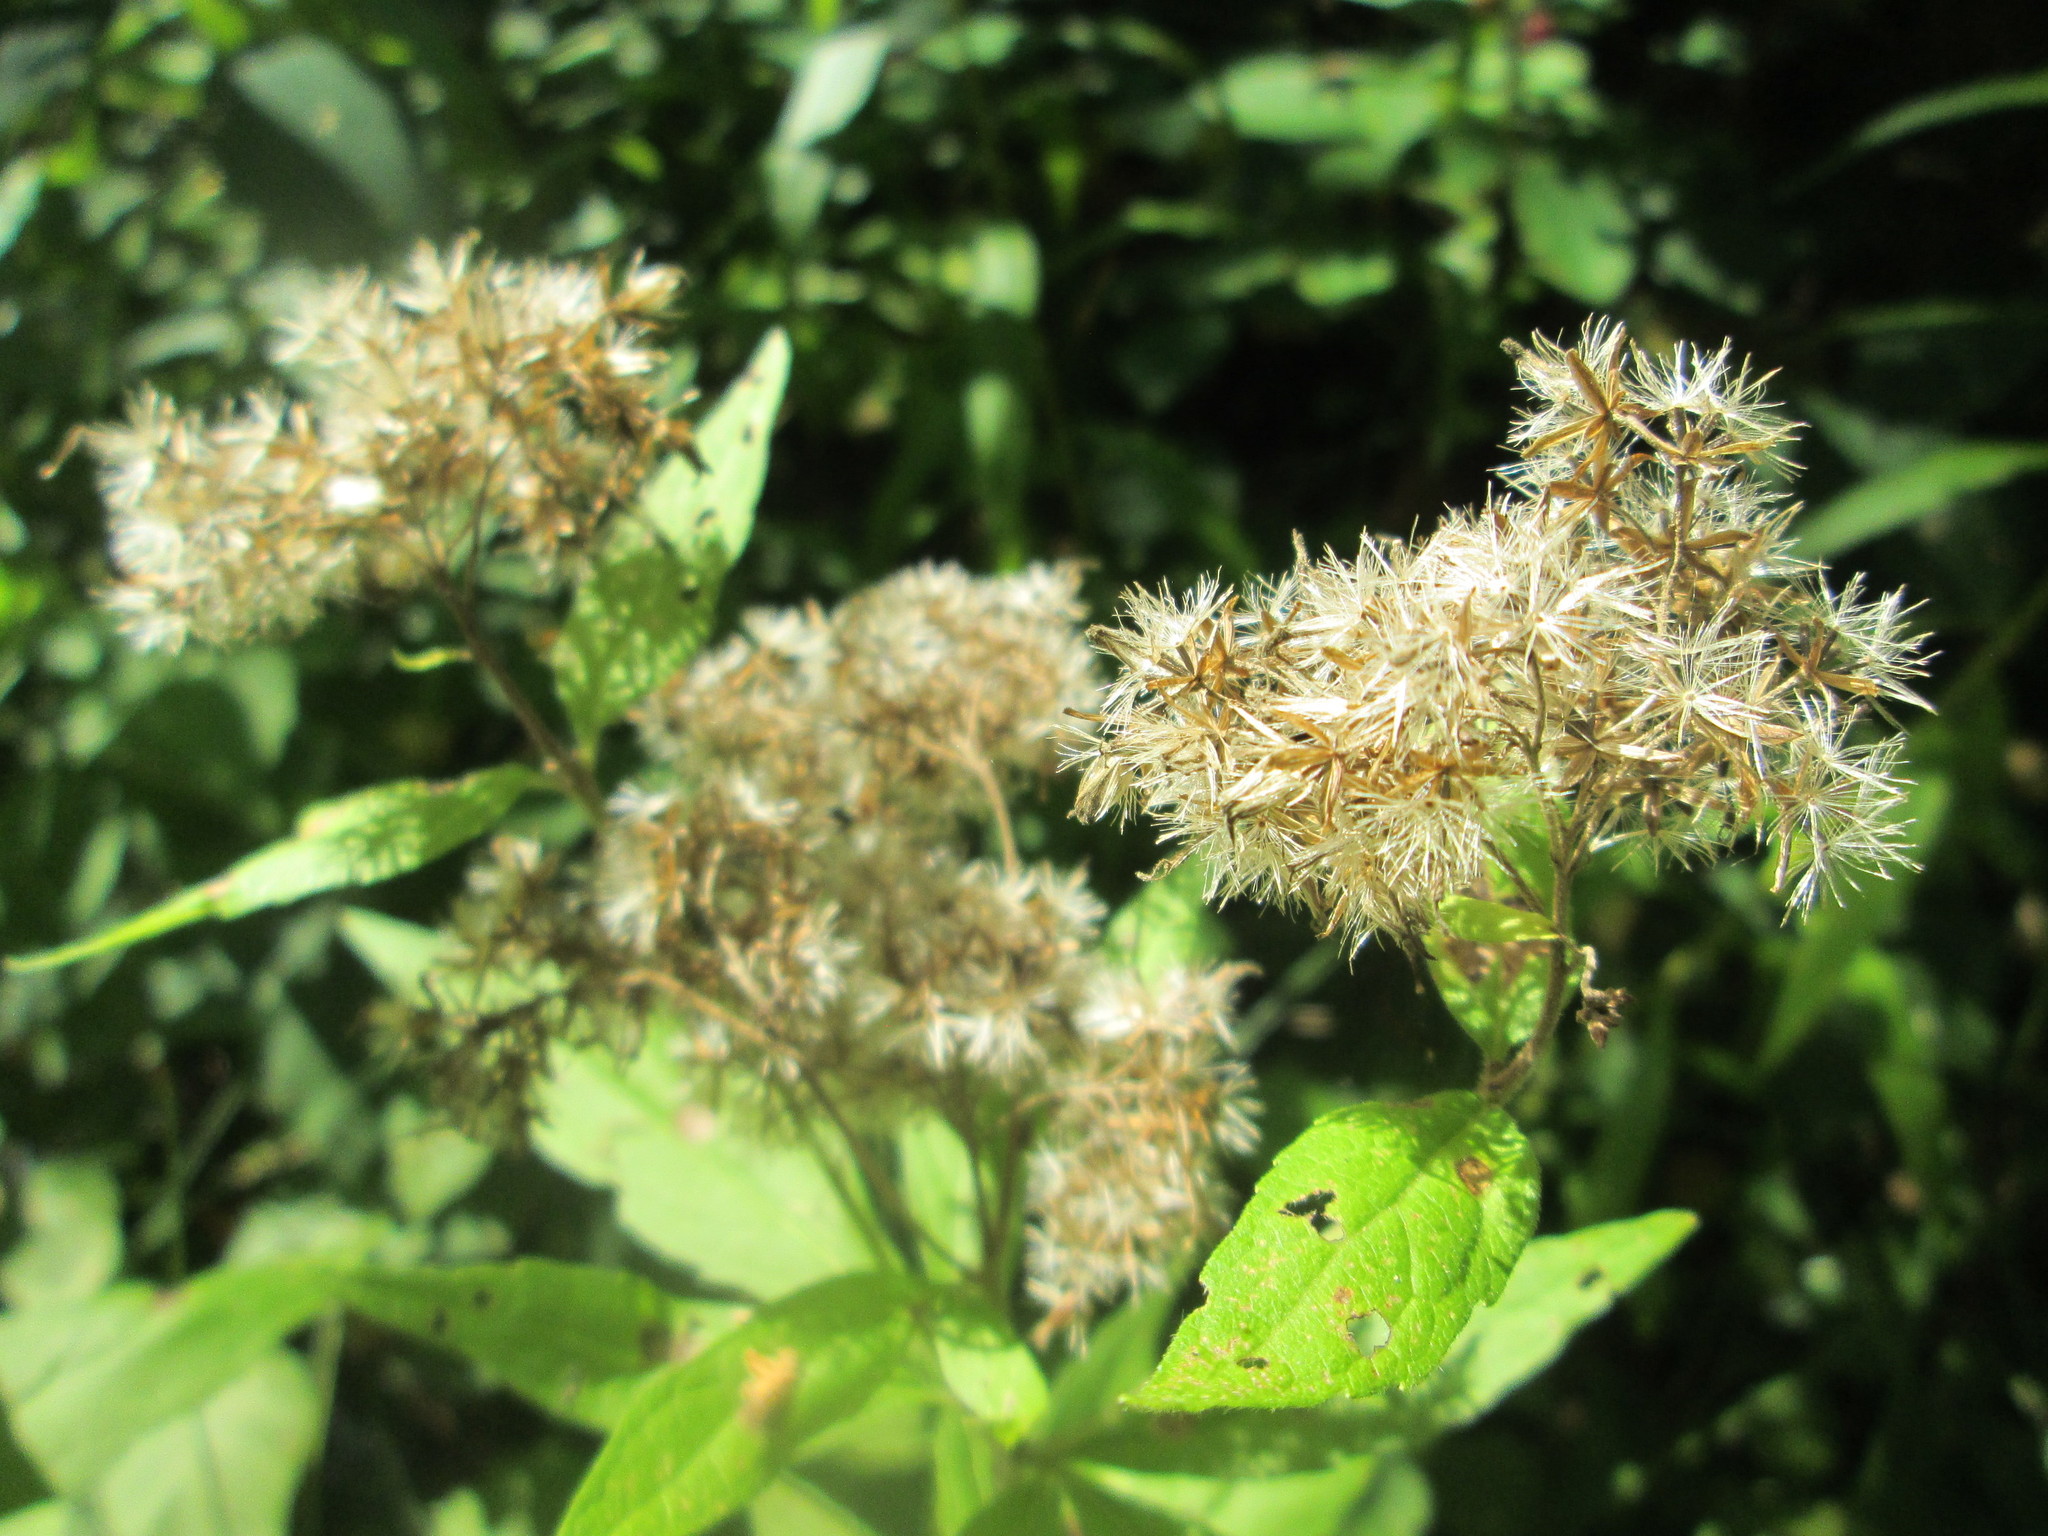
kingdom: Plantae
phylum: Tracheophyta
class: Magnoliopsida
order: Asterales
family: Asteraceae
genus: Eupatorium
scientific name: Eupatorium cannabinum
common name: Hemp-agrimony
